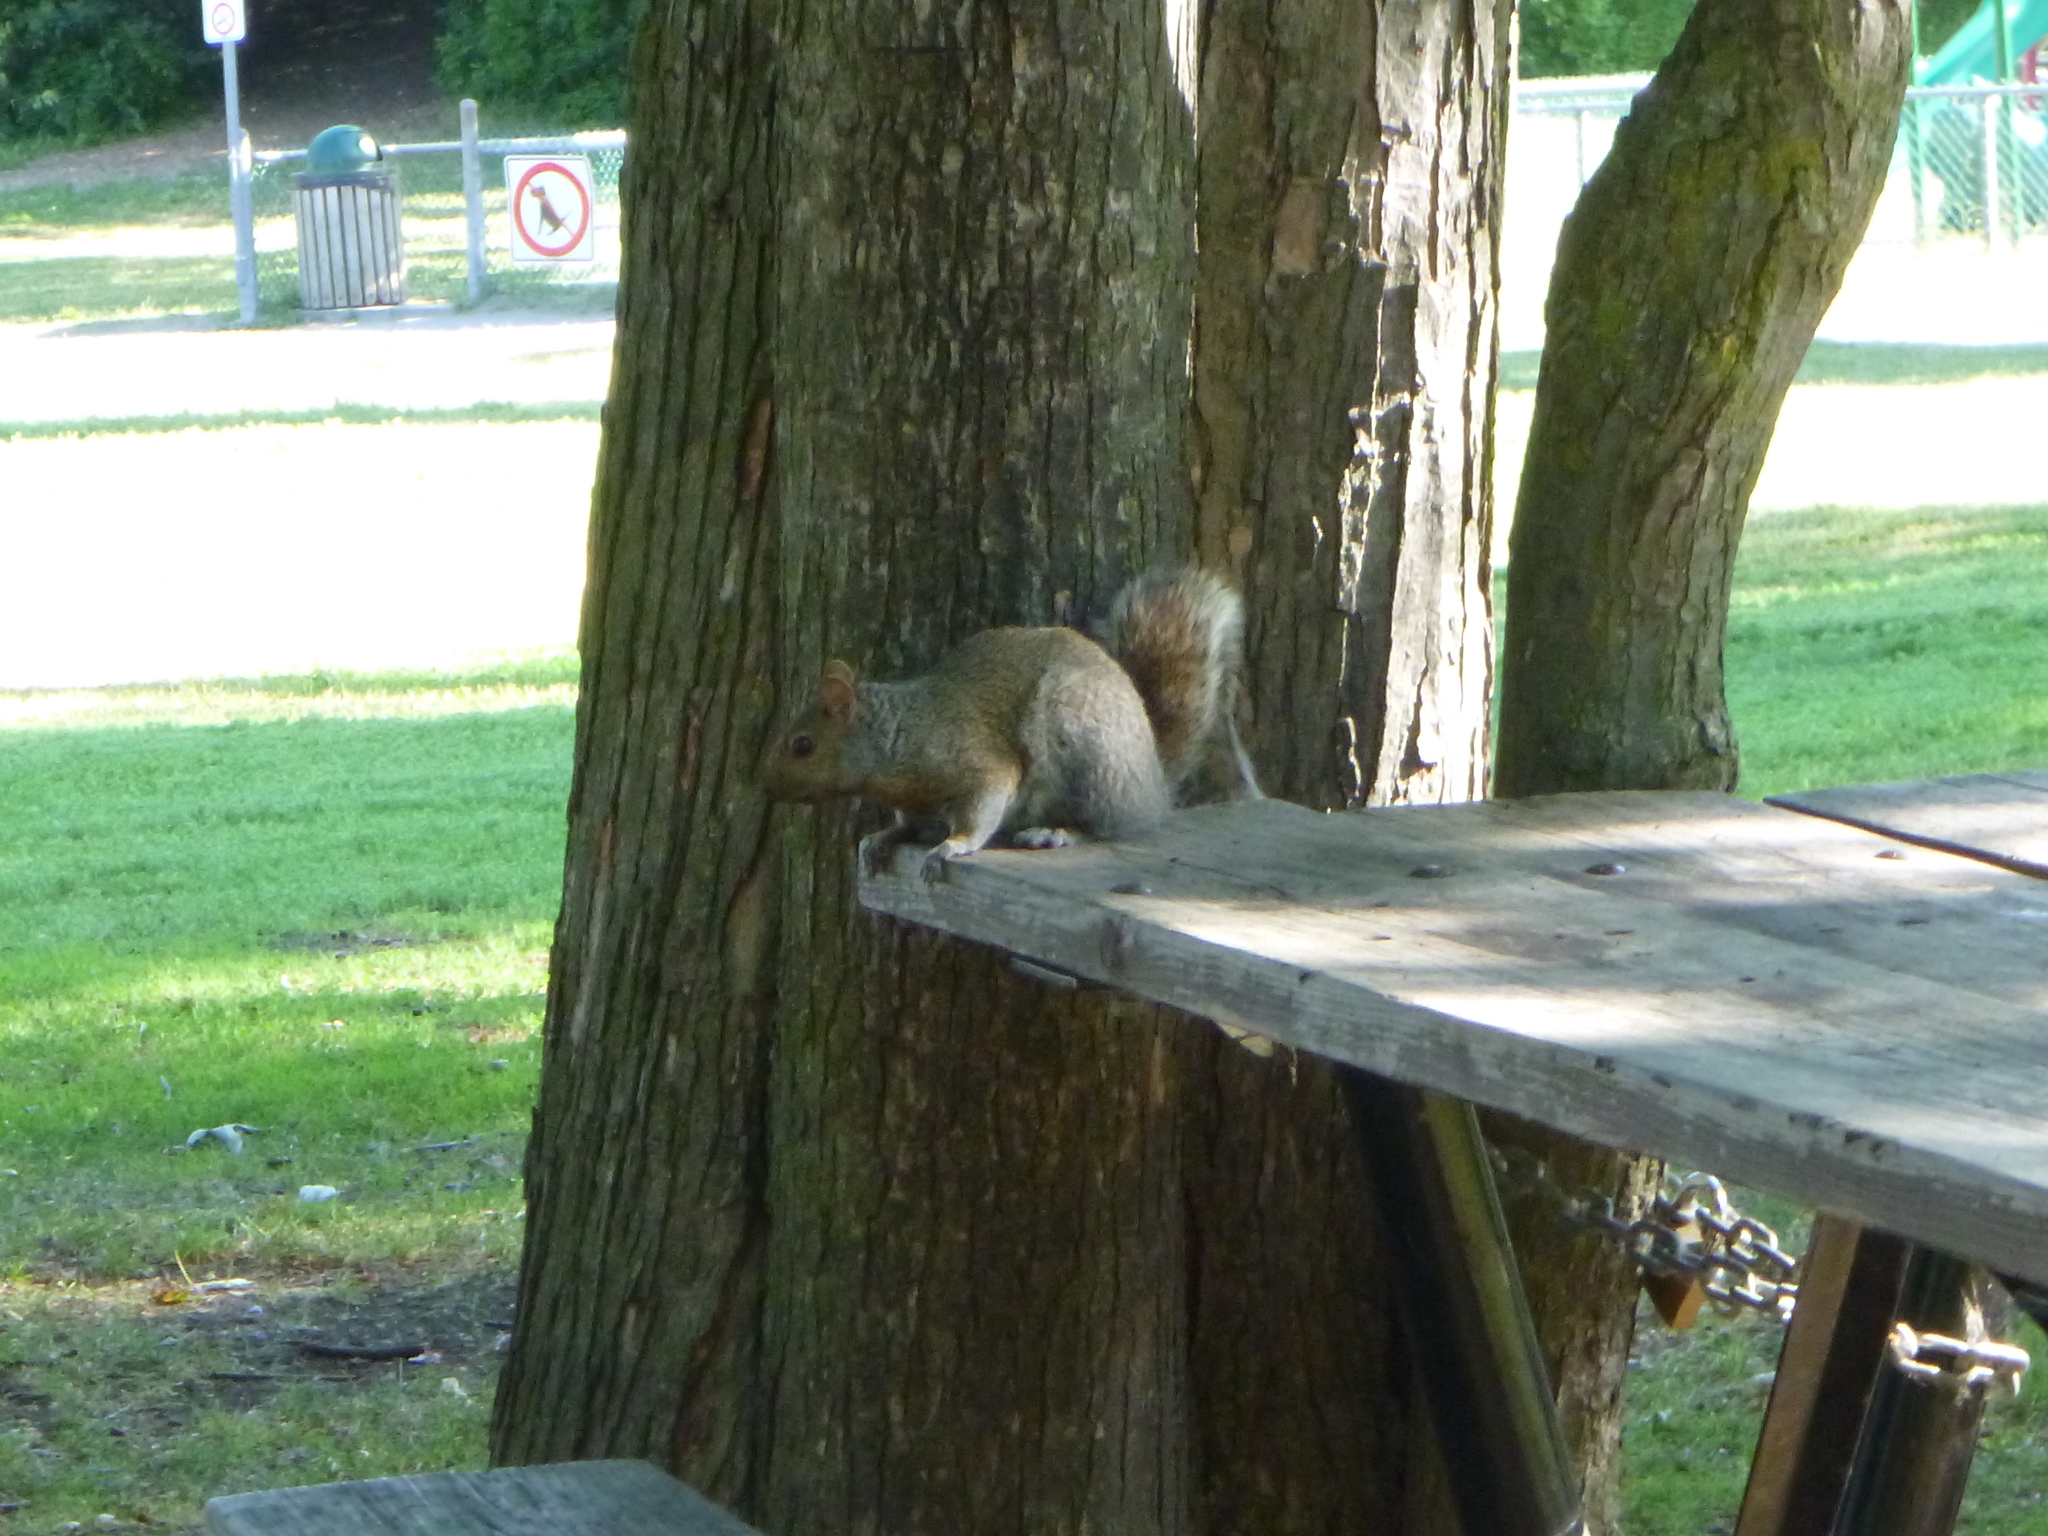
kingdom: Animalia
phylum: Chordata
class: Mammalia
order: Rodentia
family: Sciuridae
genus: Sciurus
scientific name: Sciurus carolinensis
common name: Eastern gray squirrel
